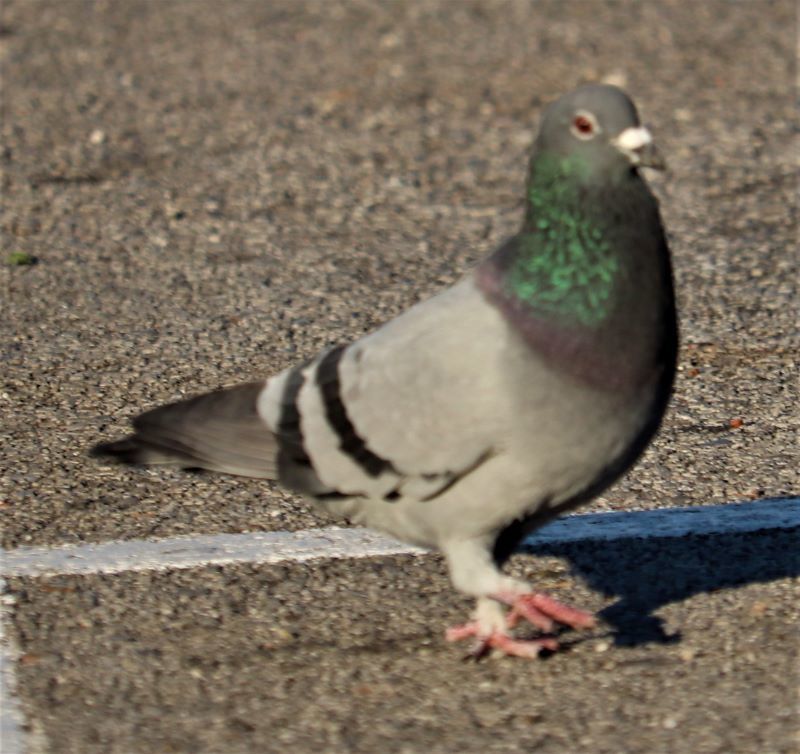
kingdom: Animalia
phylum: Chordata
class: Aves
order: Columbiformes
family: Columbidae
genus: Columba
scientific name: Columba livia
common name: Rock pigeon
